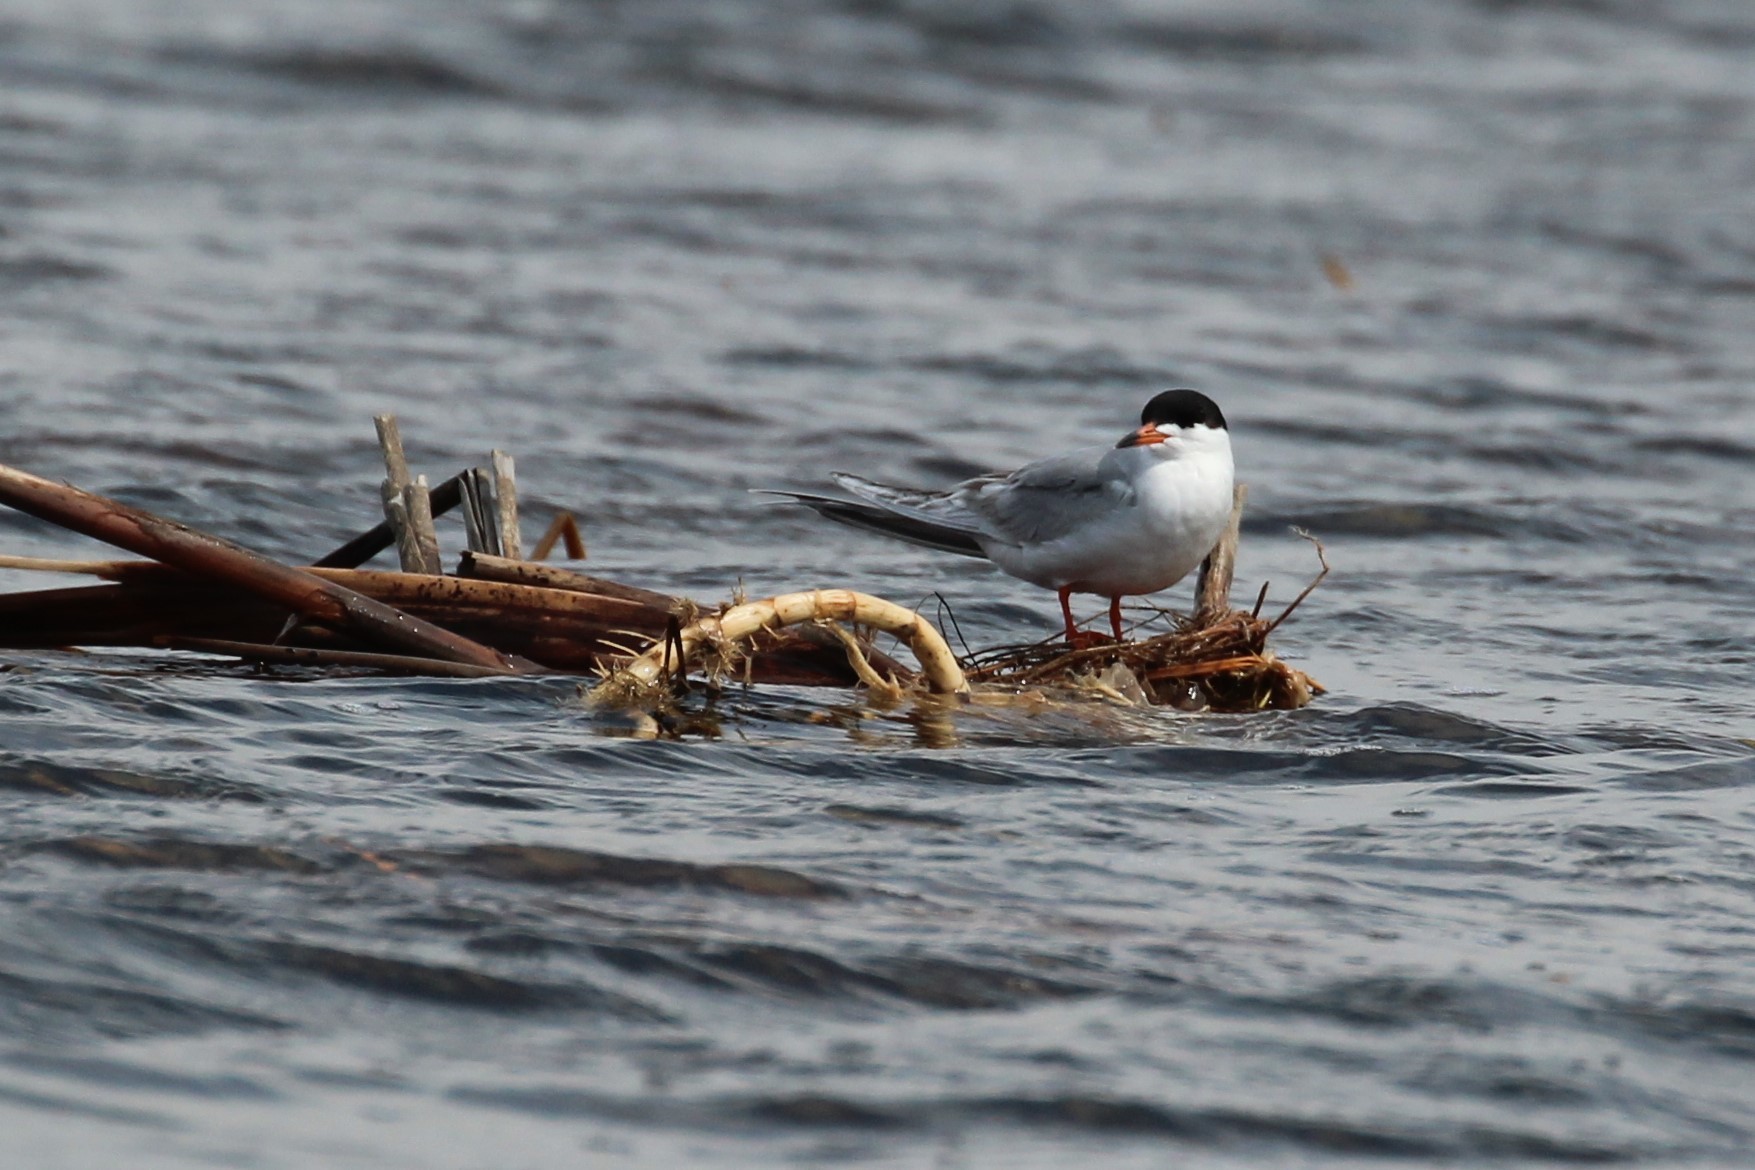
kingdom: Animalia
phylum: Chordata
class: Aves
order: Charadriiformes
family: Laridae
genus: Sterna
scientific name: Sterna forsteri
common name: Forster's tern
